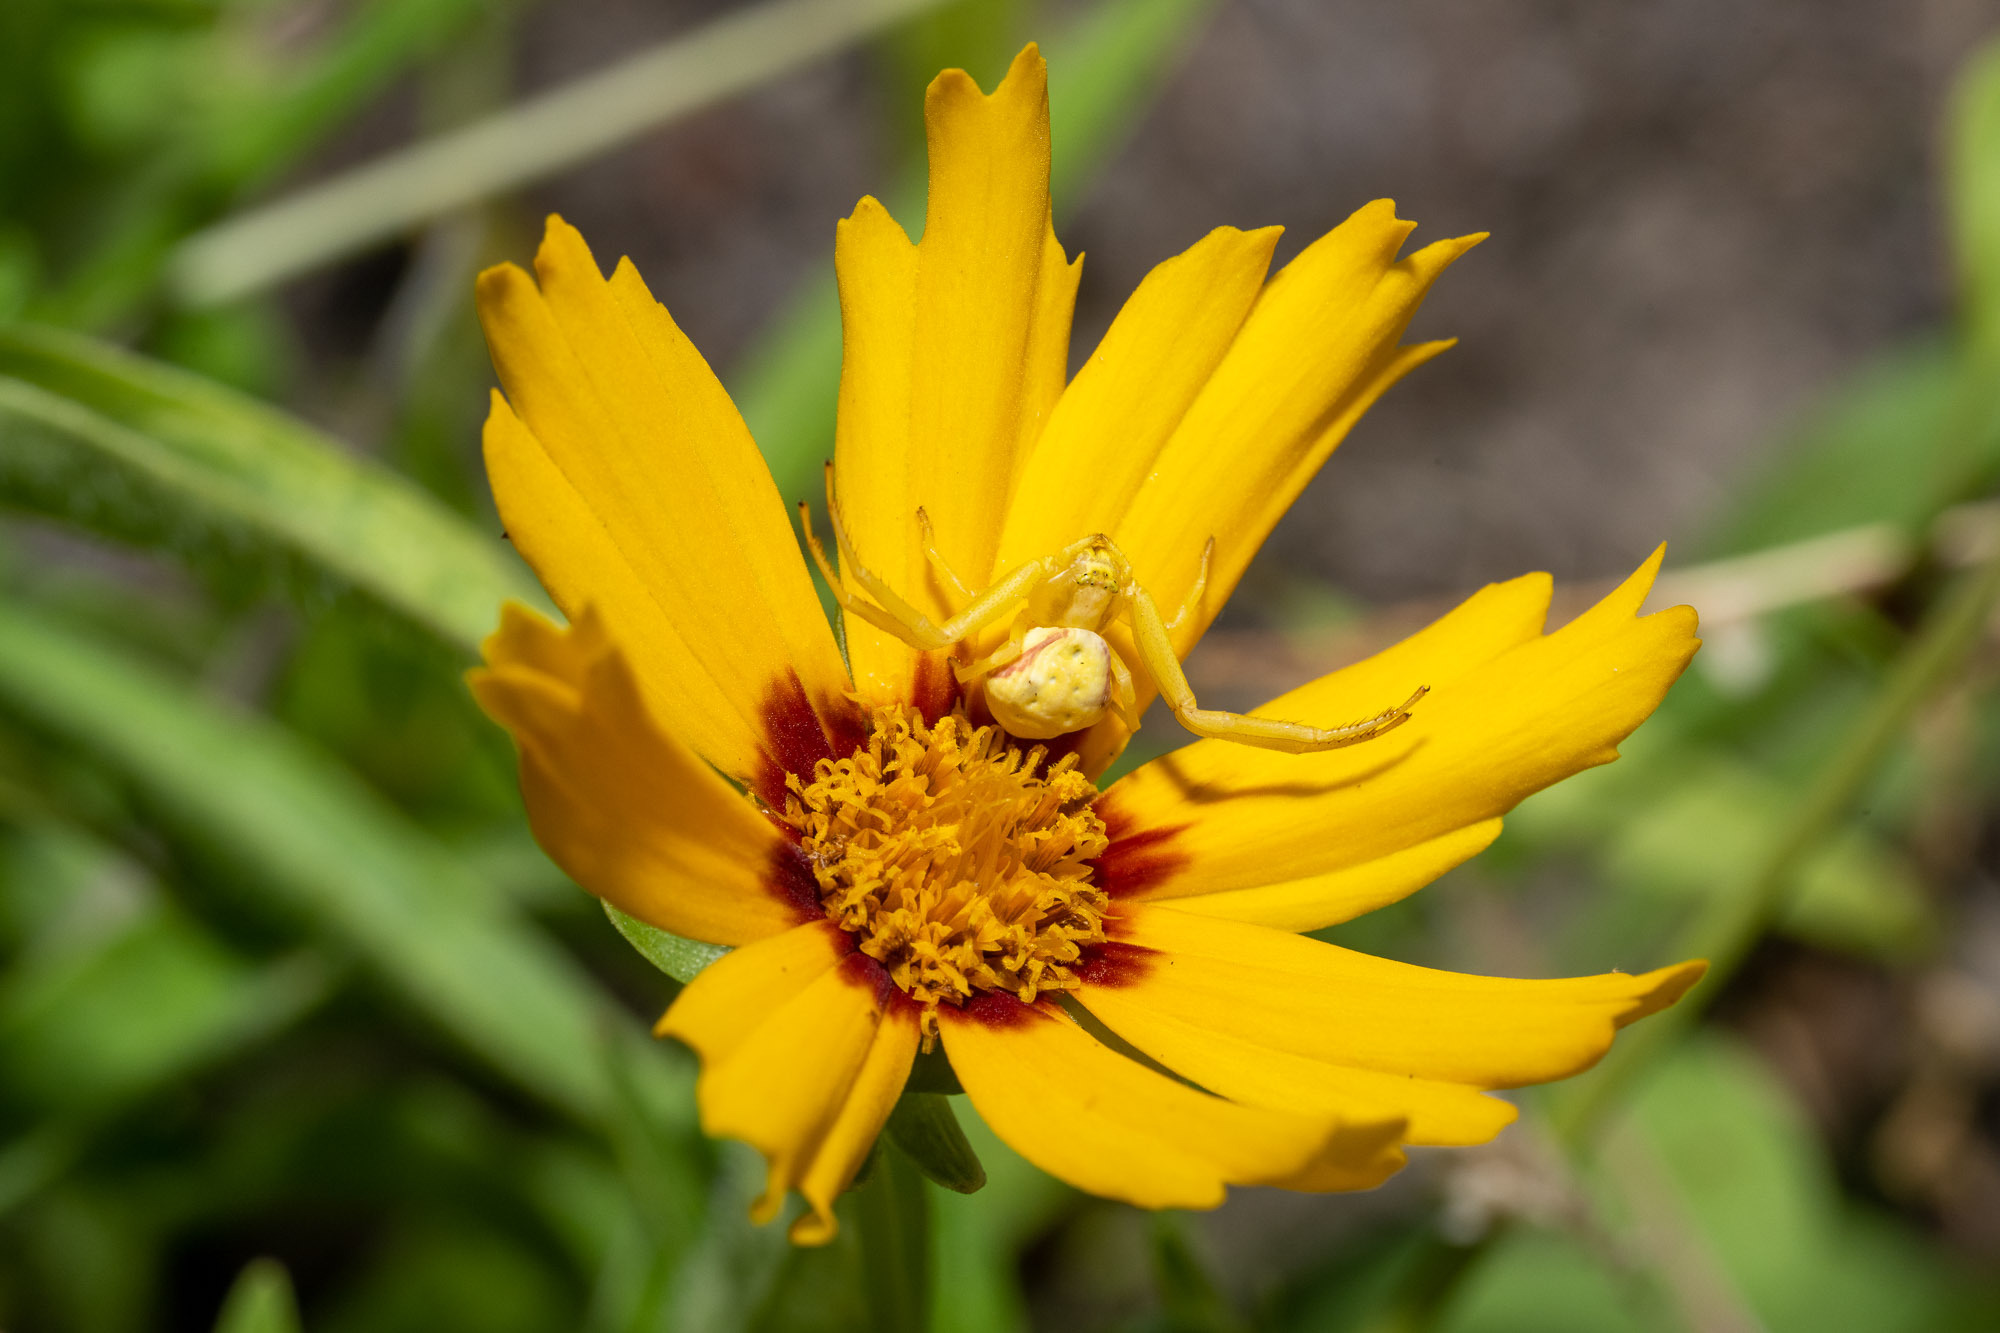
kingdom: Animalia
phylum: Arthropoda
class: Arachnida
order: Araneae
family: Thomisidae
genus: Misumena
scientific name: Misumena vatia
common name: Goldenrod crab spider
